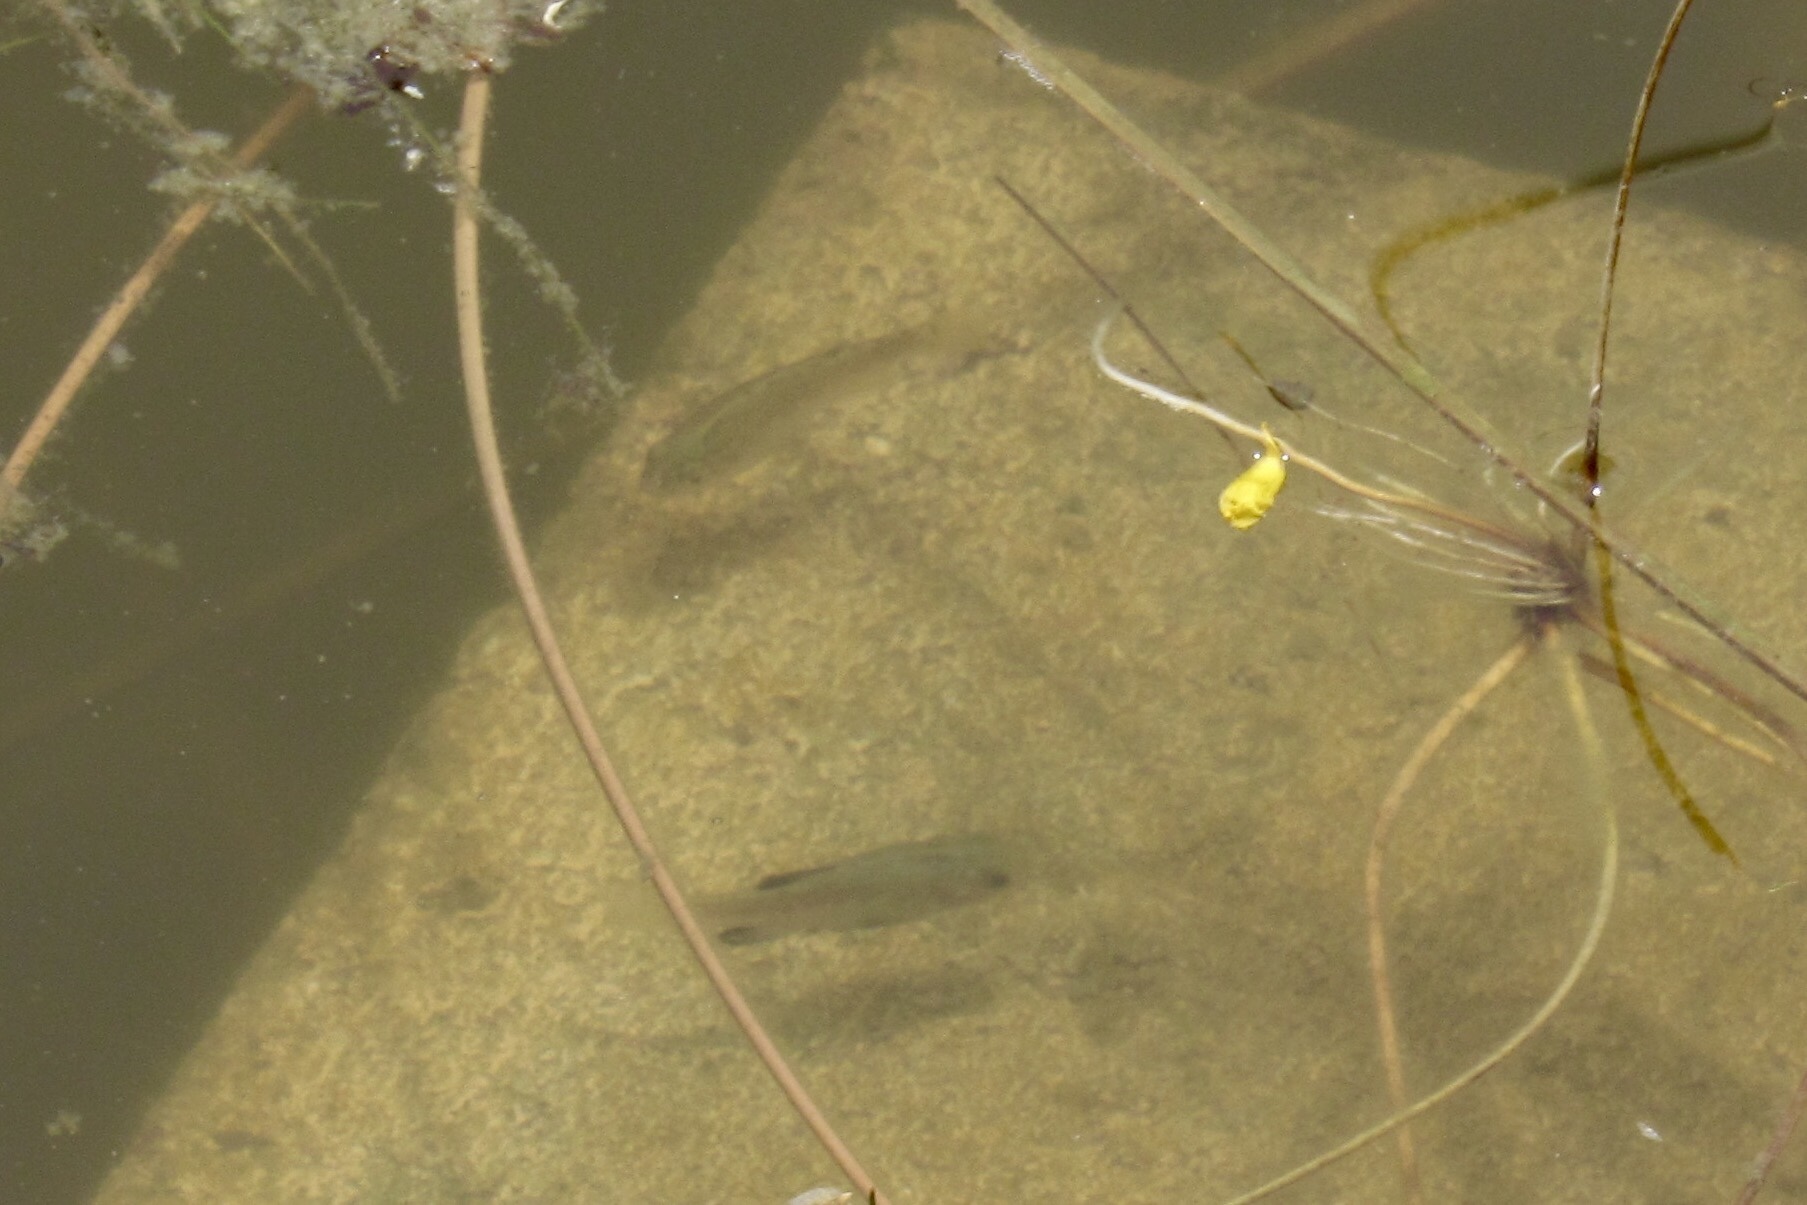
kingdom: Animalia
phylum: Chordata
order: Cyprinodontiformes
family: Cyprinodontidae
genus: Cyprinodon
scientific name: Cyprinodon eremus
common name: Sonoyta pupfish
